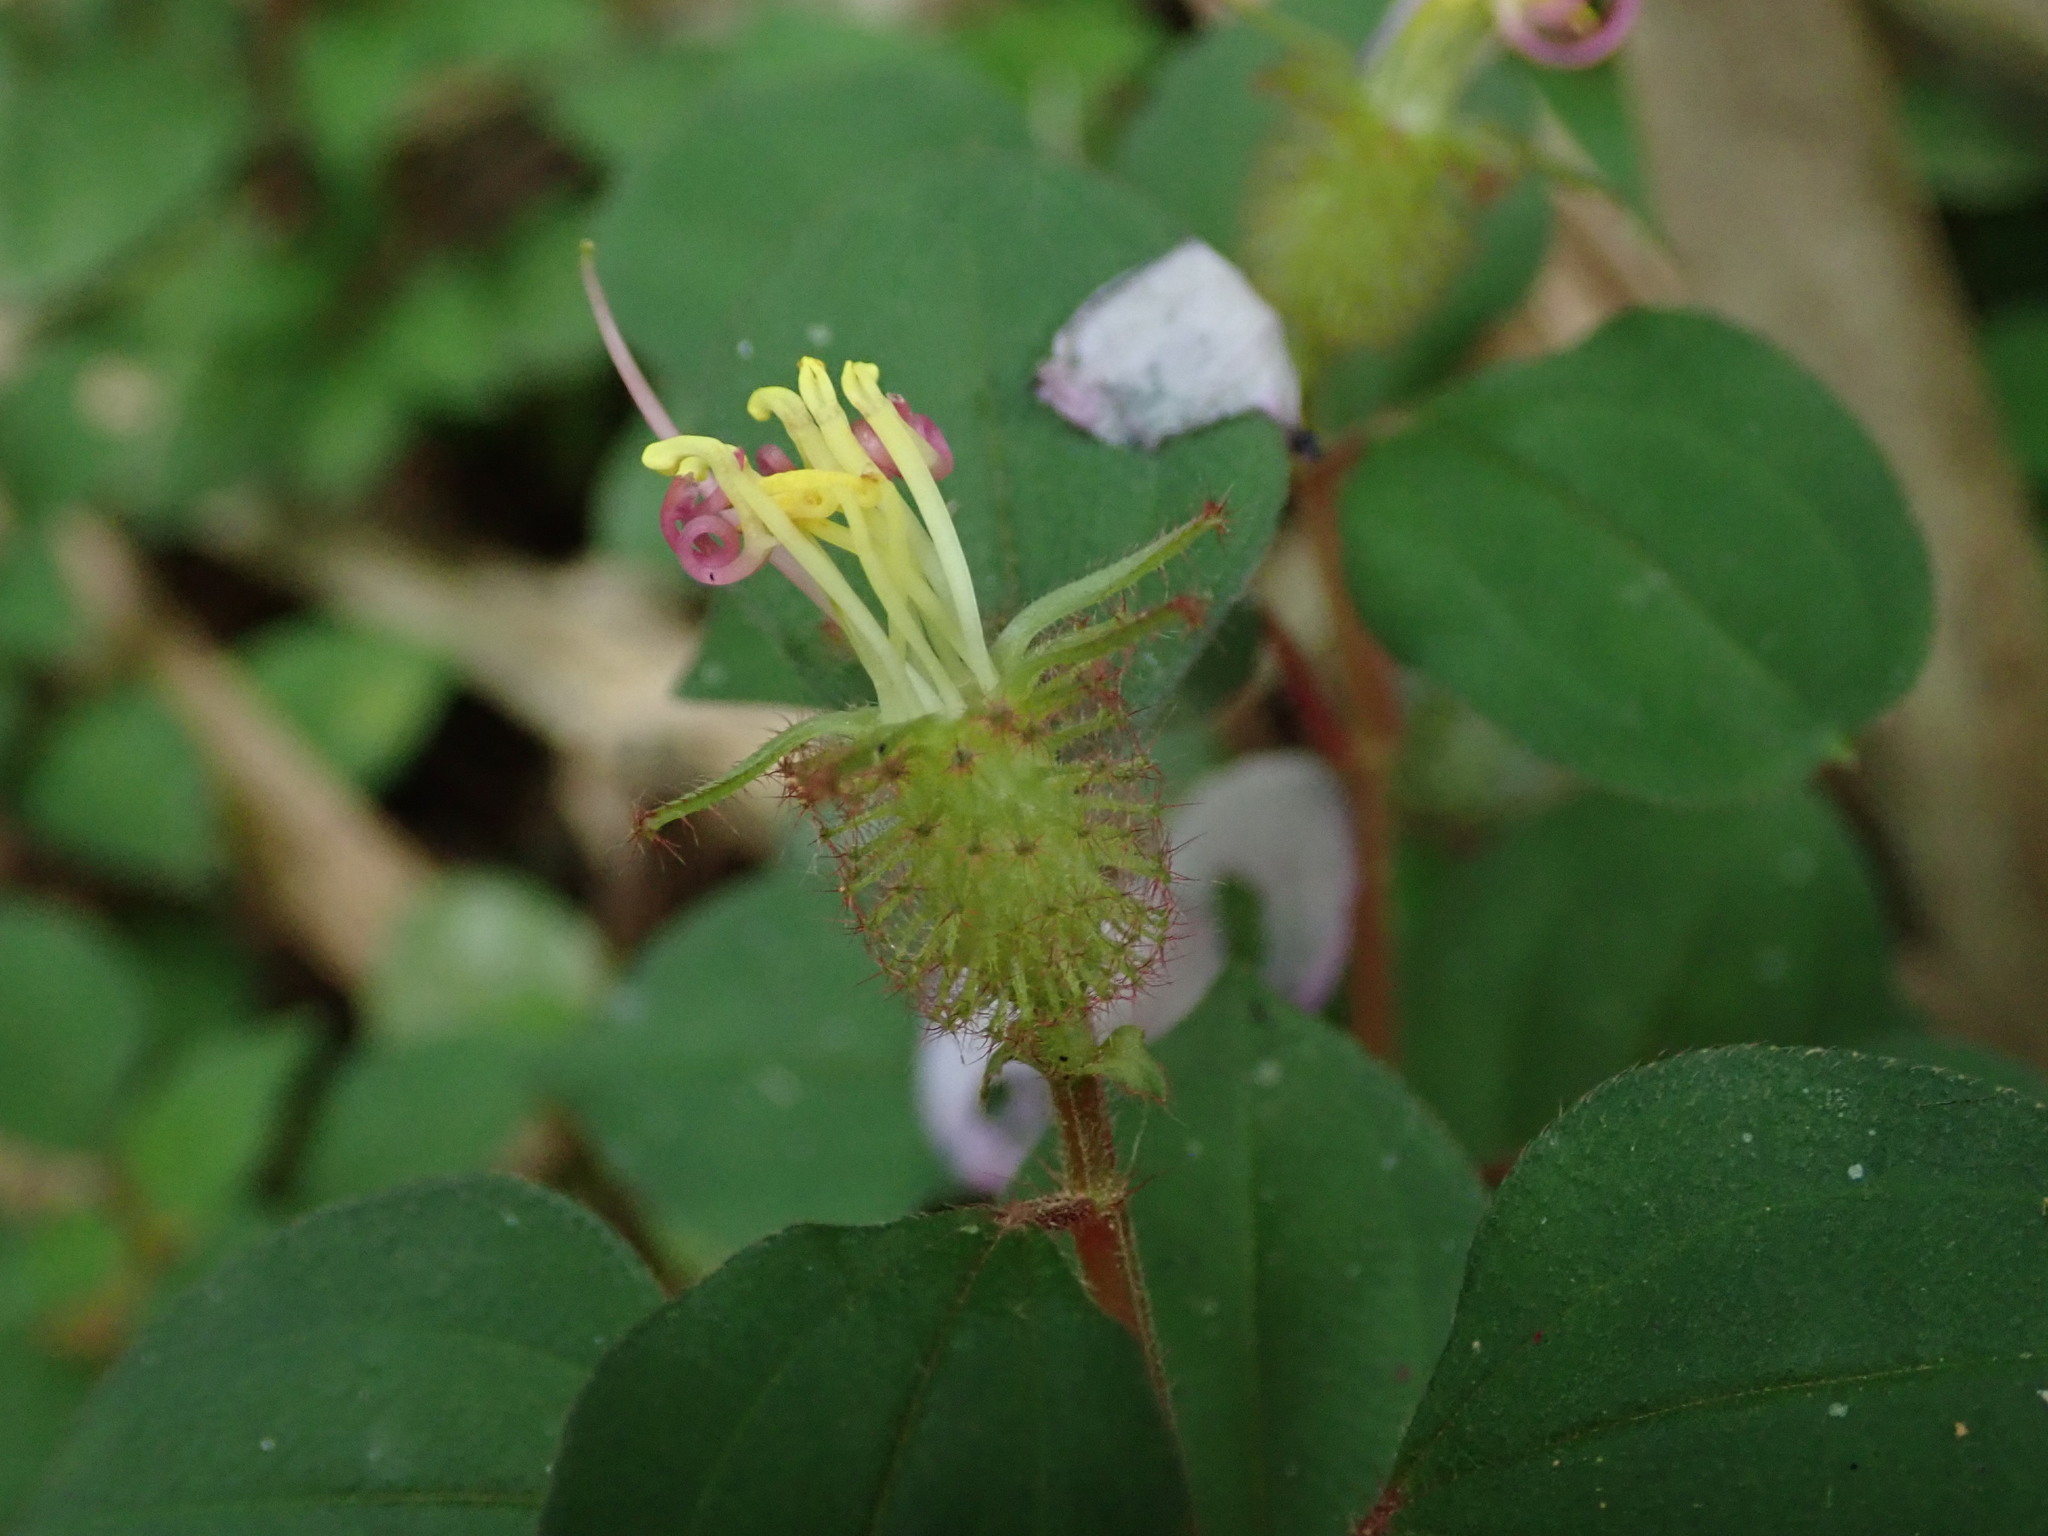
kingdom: Plantae
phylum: Tracheophyta
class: Magnoliopsida
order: Myrtales
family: Melastomataceae
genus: Heterotis
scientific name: Heterotis rotundifolia
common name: Pinklady
